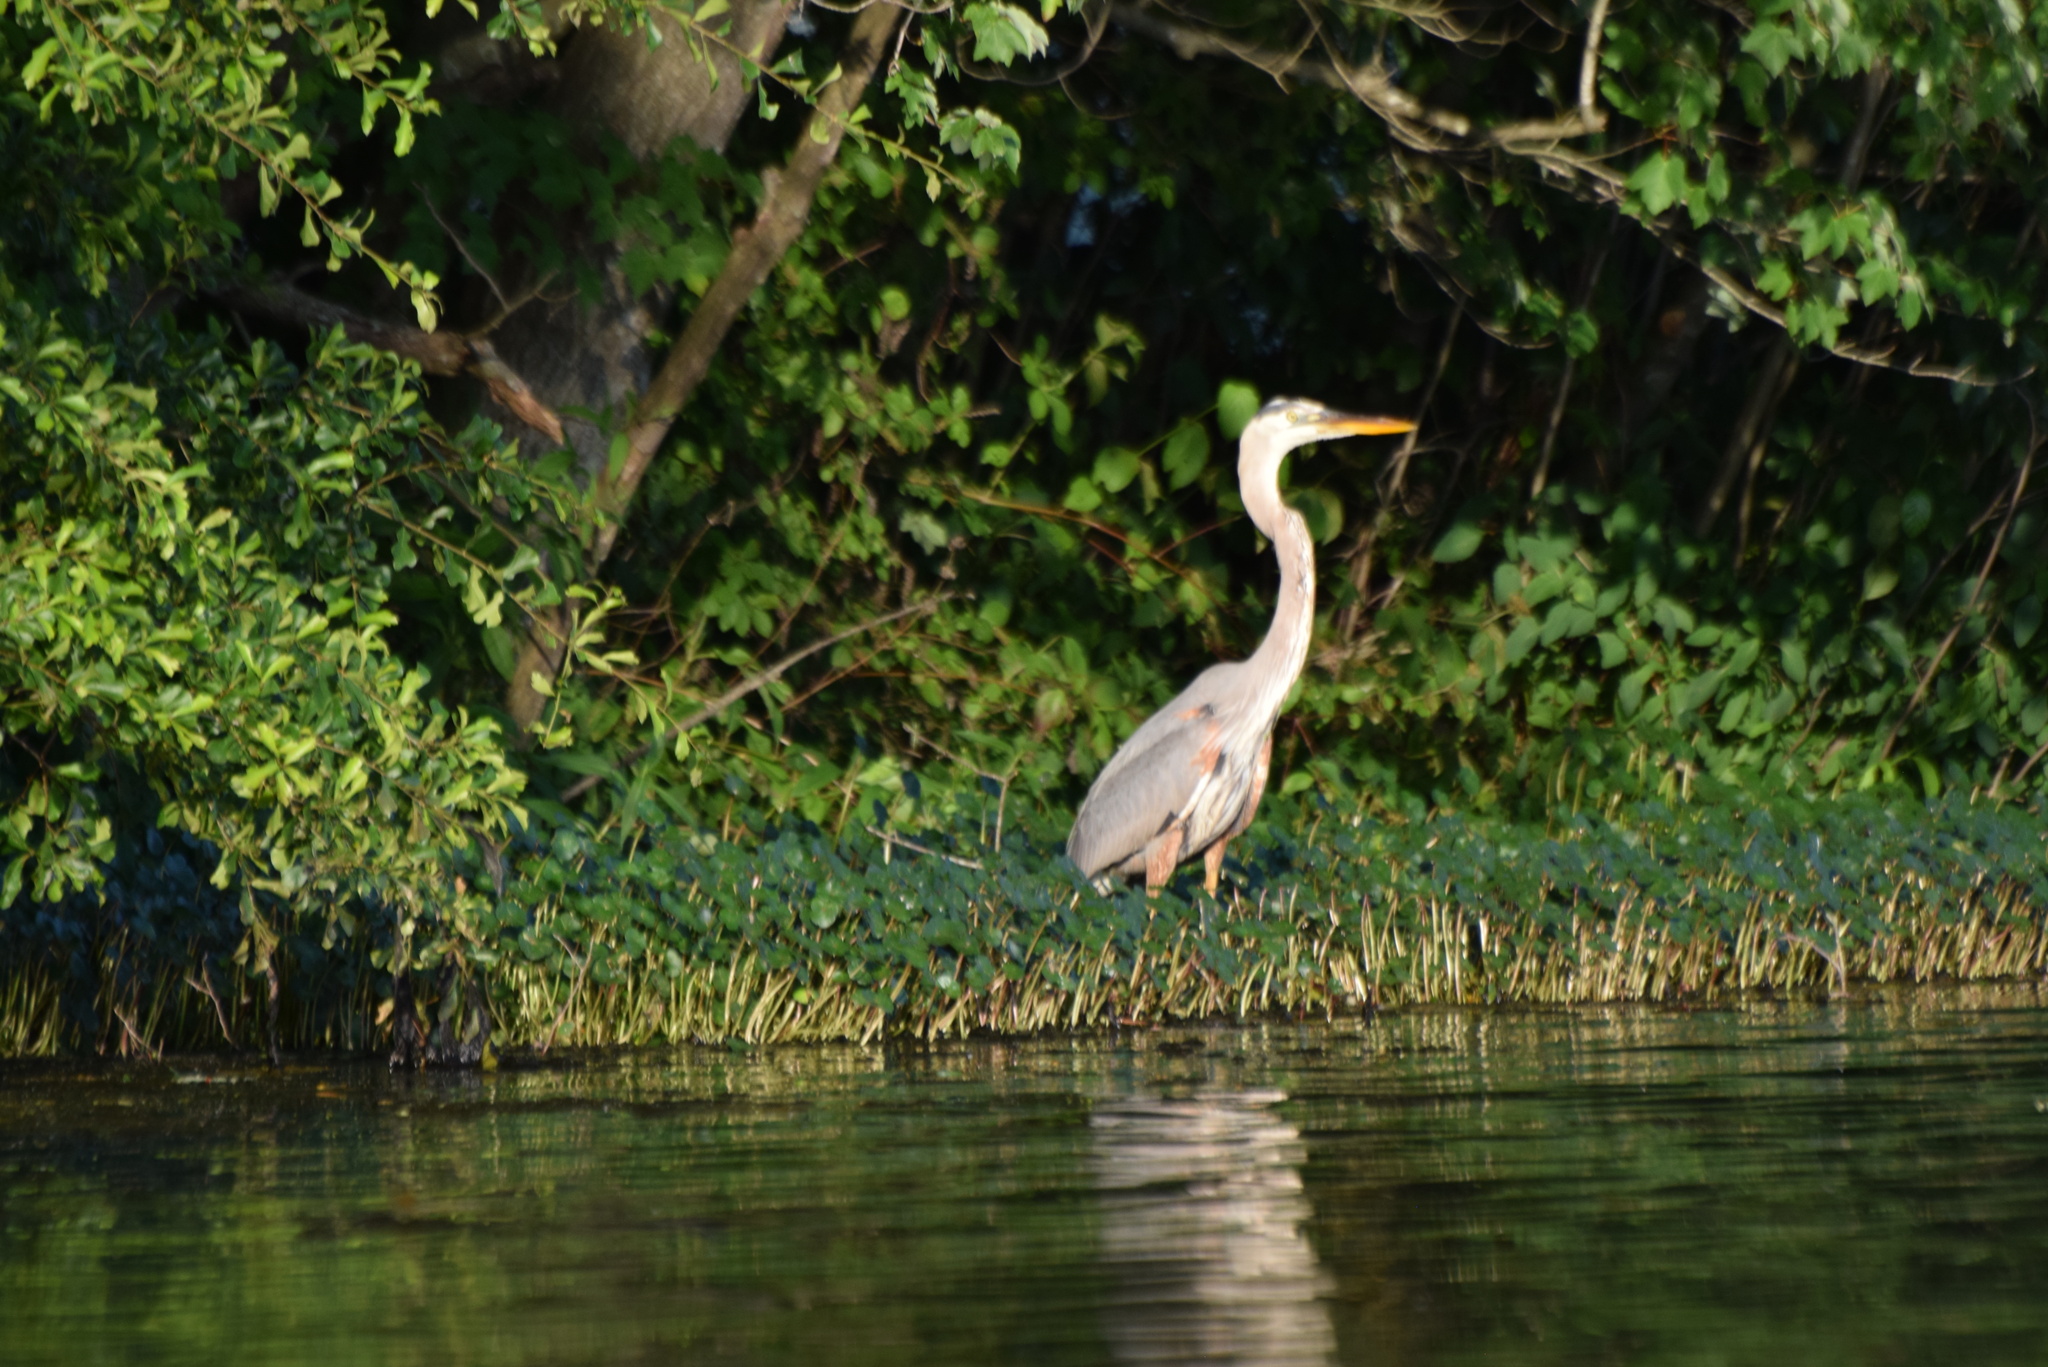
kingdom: Animalia
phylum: Chordata
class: Aves
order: Pelecaniformes
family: Ardeidae
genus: Ardea
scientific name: Ardea herodias
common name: Great blue heron
